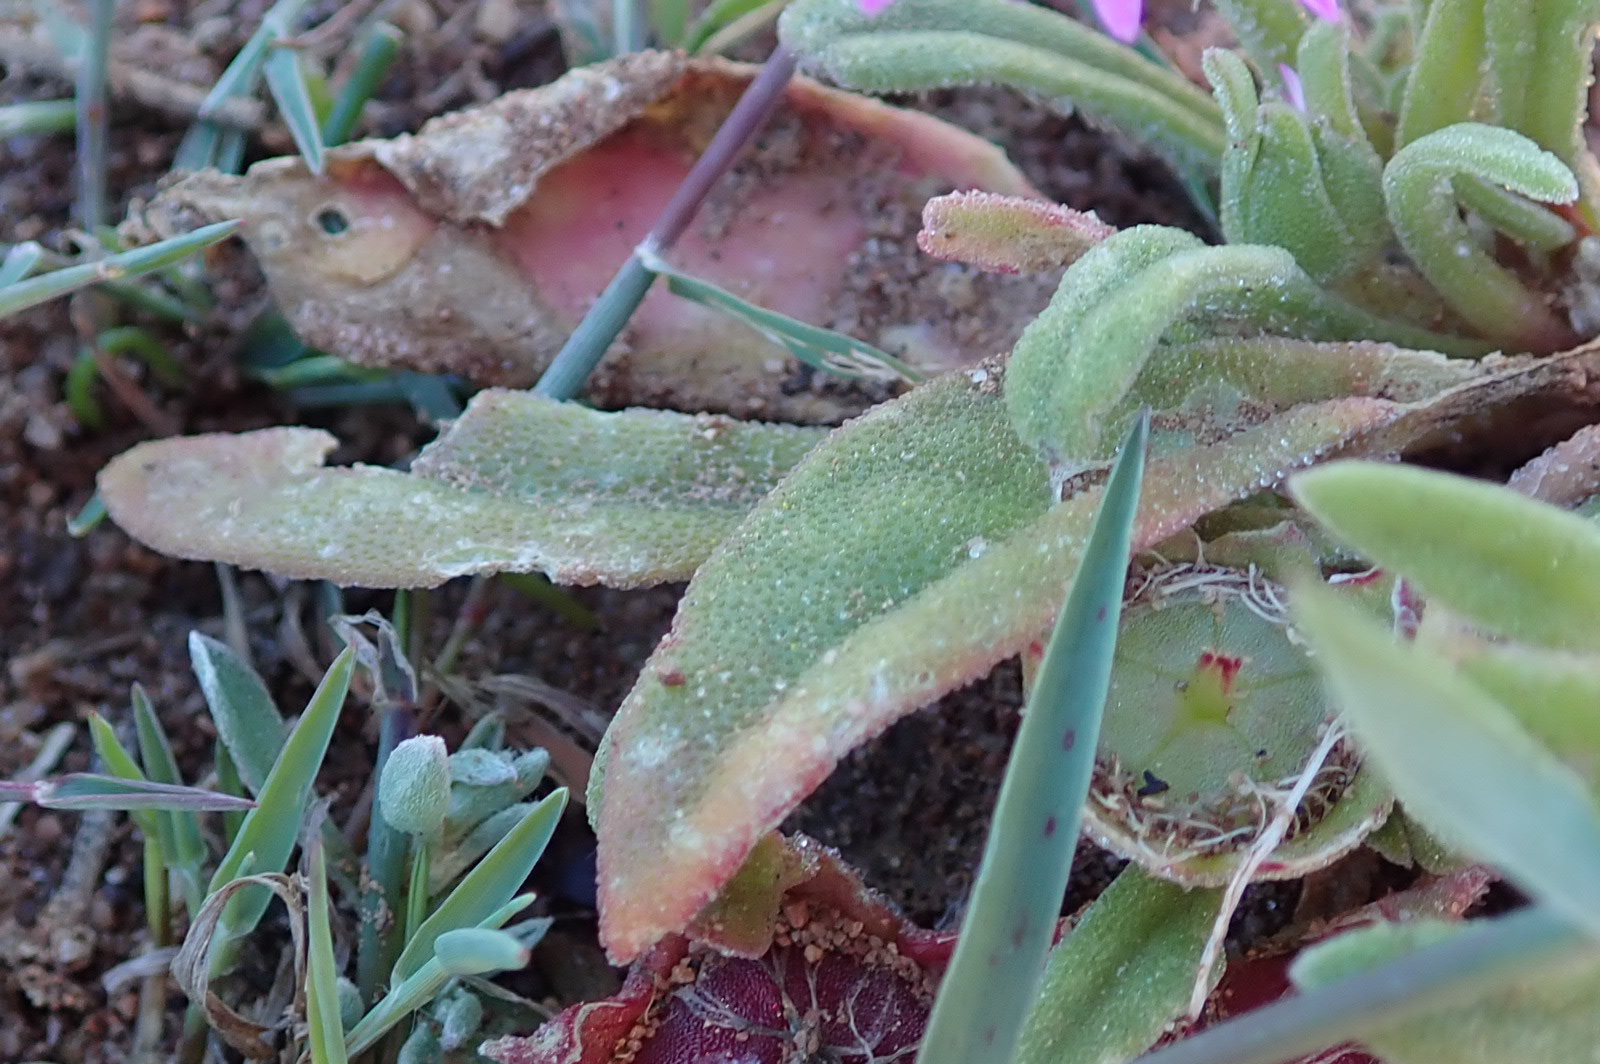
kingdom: Plantae
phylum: Tracheophyta
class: Magnoliopsida
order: Caryophyllales
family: Aizoaceae
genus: Cleretum
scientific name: Cleretum bellidiforme
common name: Livingstone daisy
